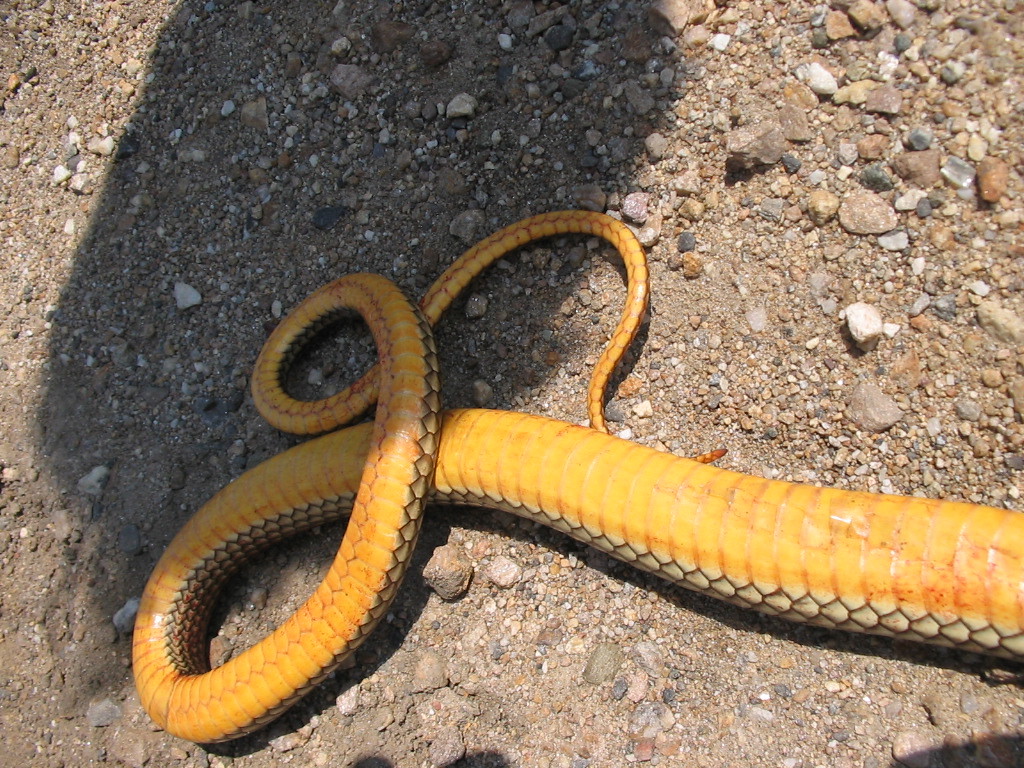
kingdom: Animalia
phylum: Chordata
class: Squamata
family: Colubridae
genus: Dolichophis
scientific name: Dolichophis caspius
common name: Large whip snake
